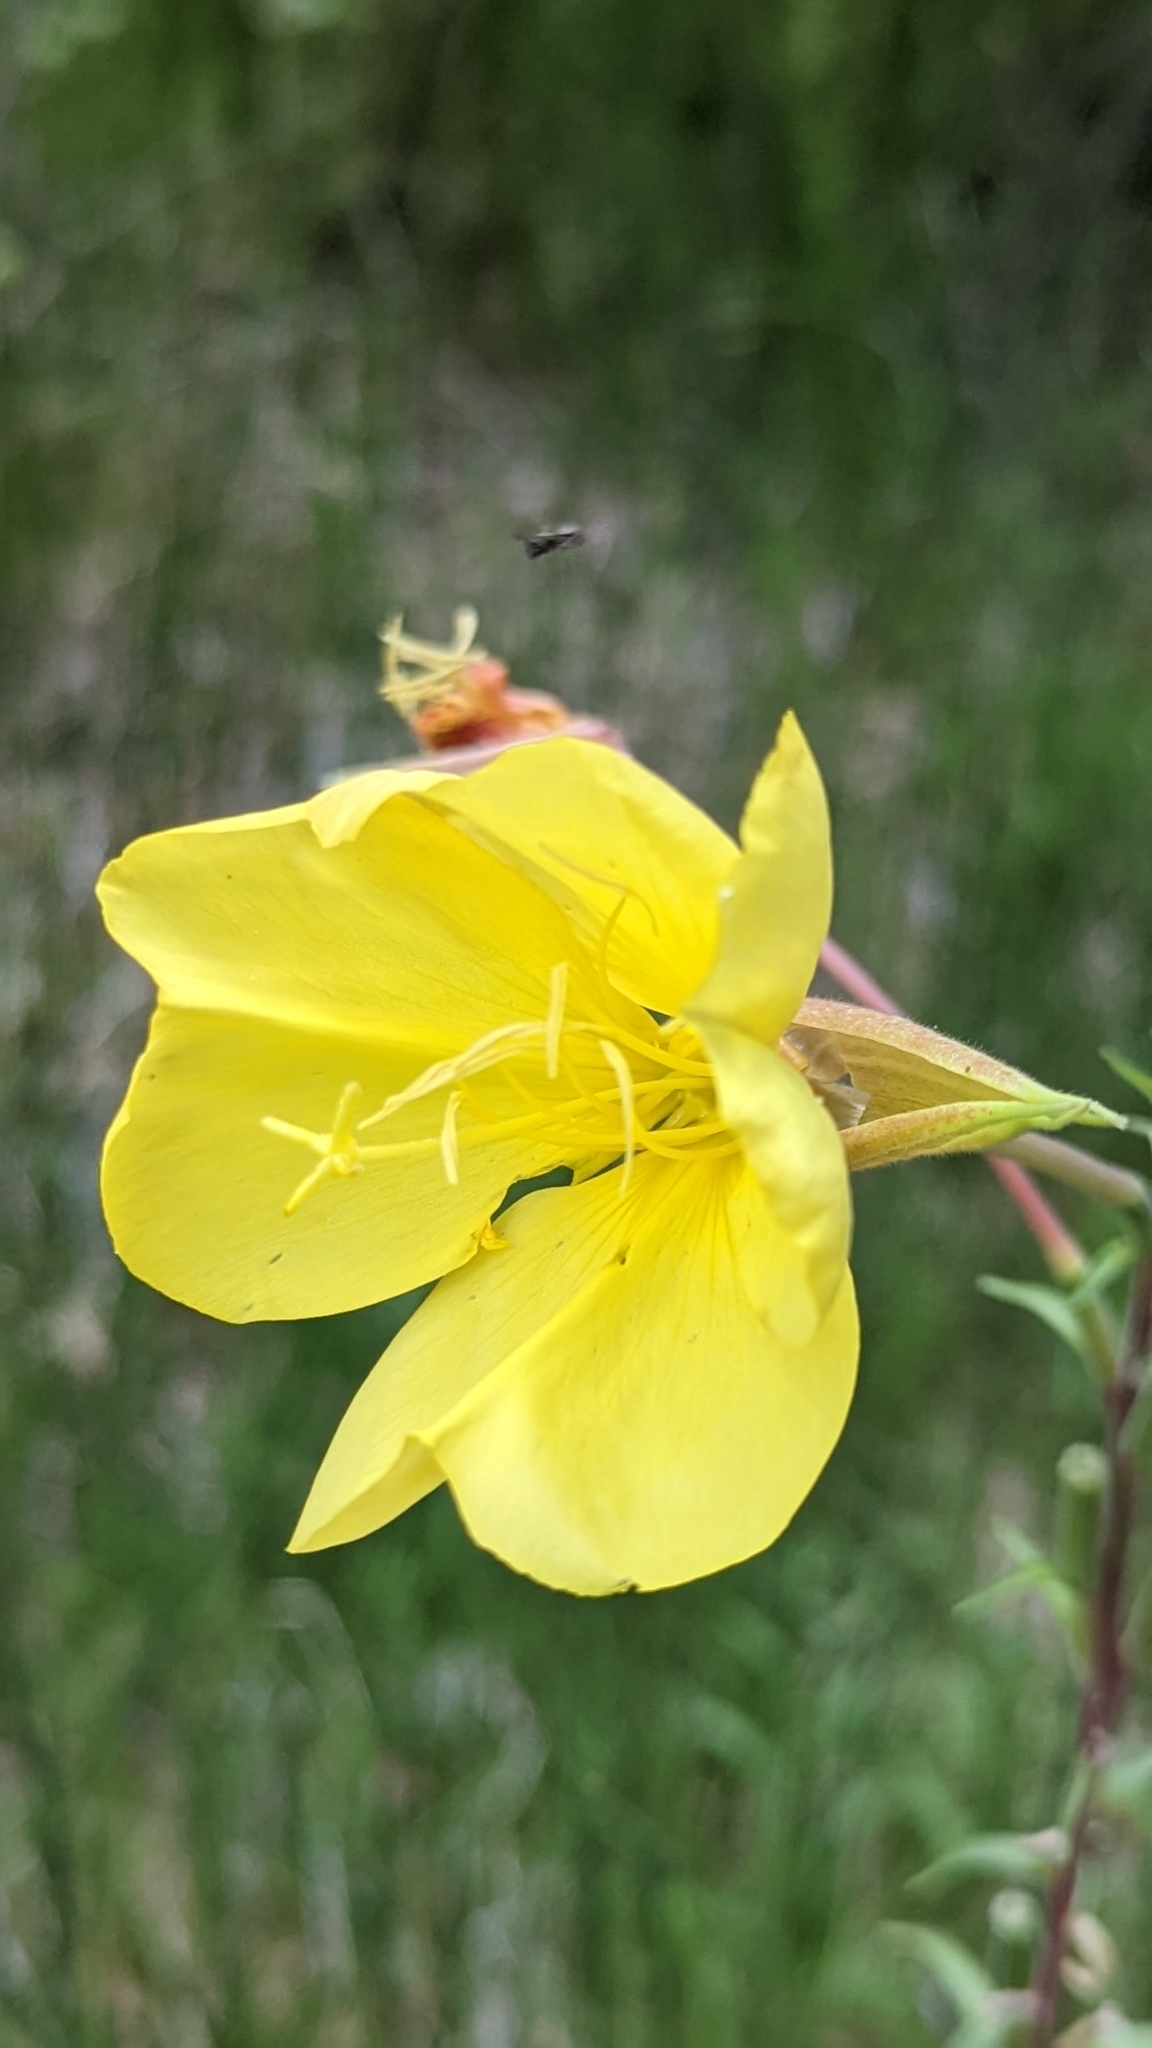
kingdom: Plantae
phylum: Tracheophyta
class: Magnoliopsida
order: Myrtales
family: Onagraceae
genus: Oenothera
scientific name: Oenothera longissima
